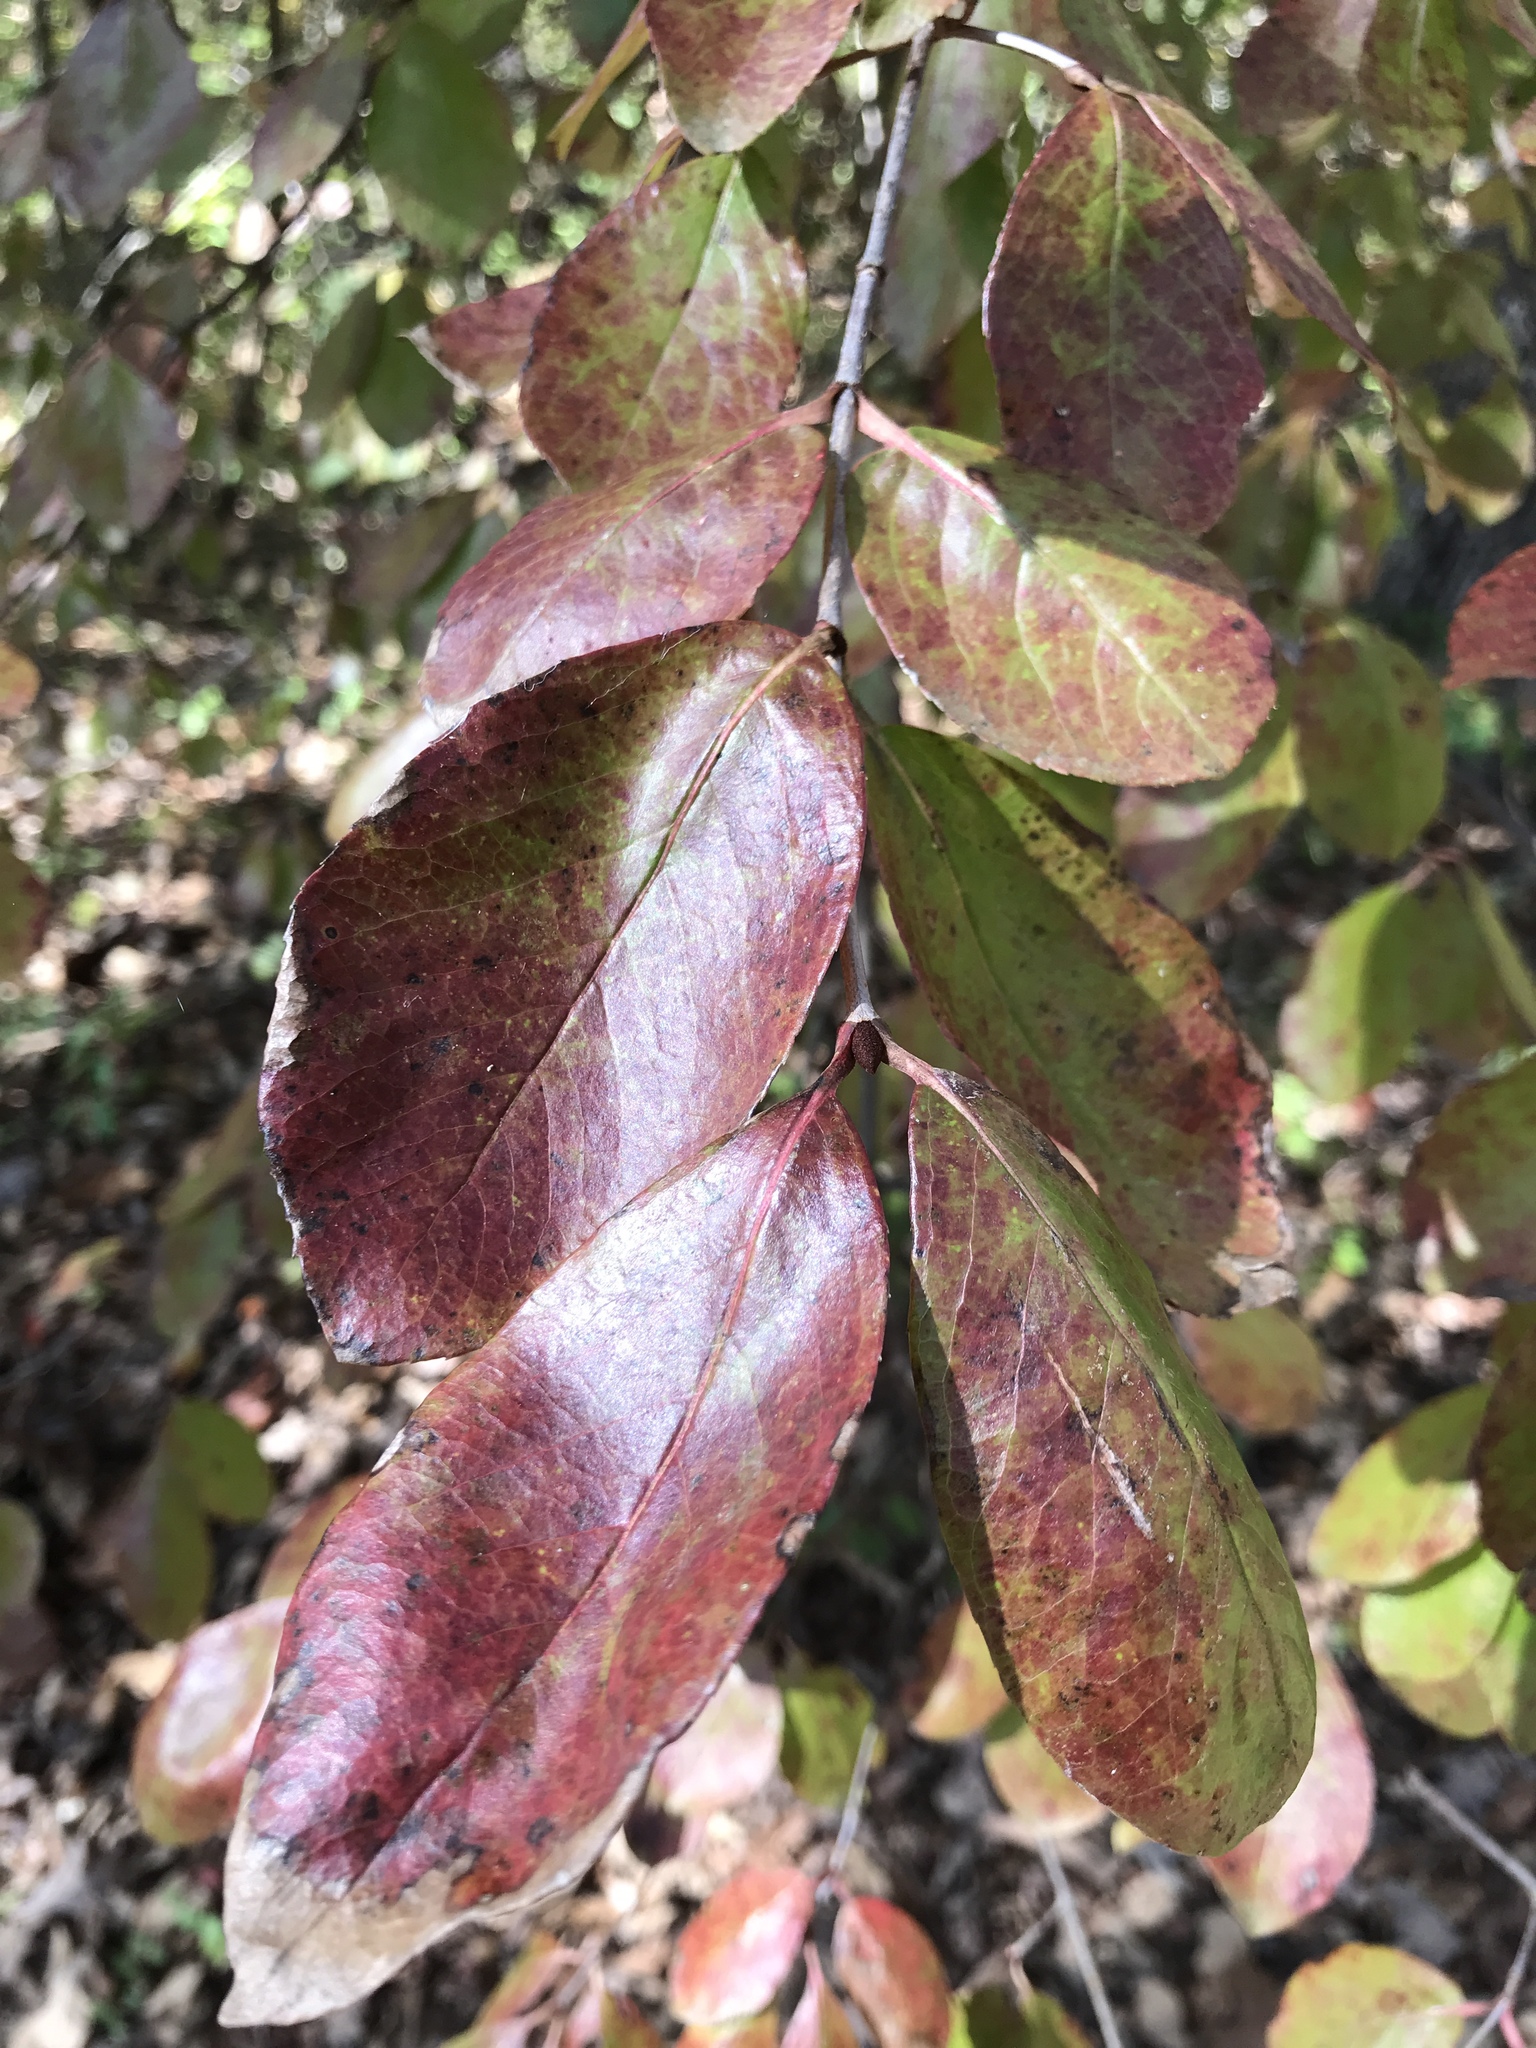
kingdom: Plantae
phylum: Tracheophyta
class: Magnoliopsida
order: Dipsacales
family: Viburnaceae
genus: Viburnum
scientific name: Viburnum rufidulum
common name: Blue haw
